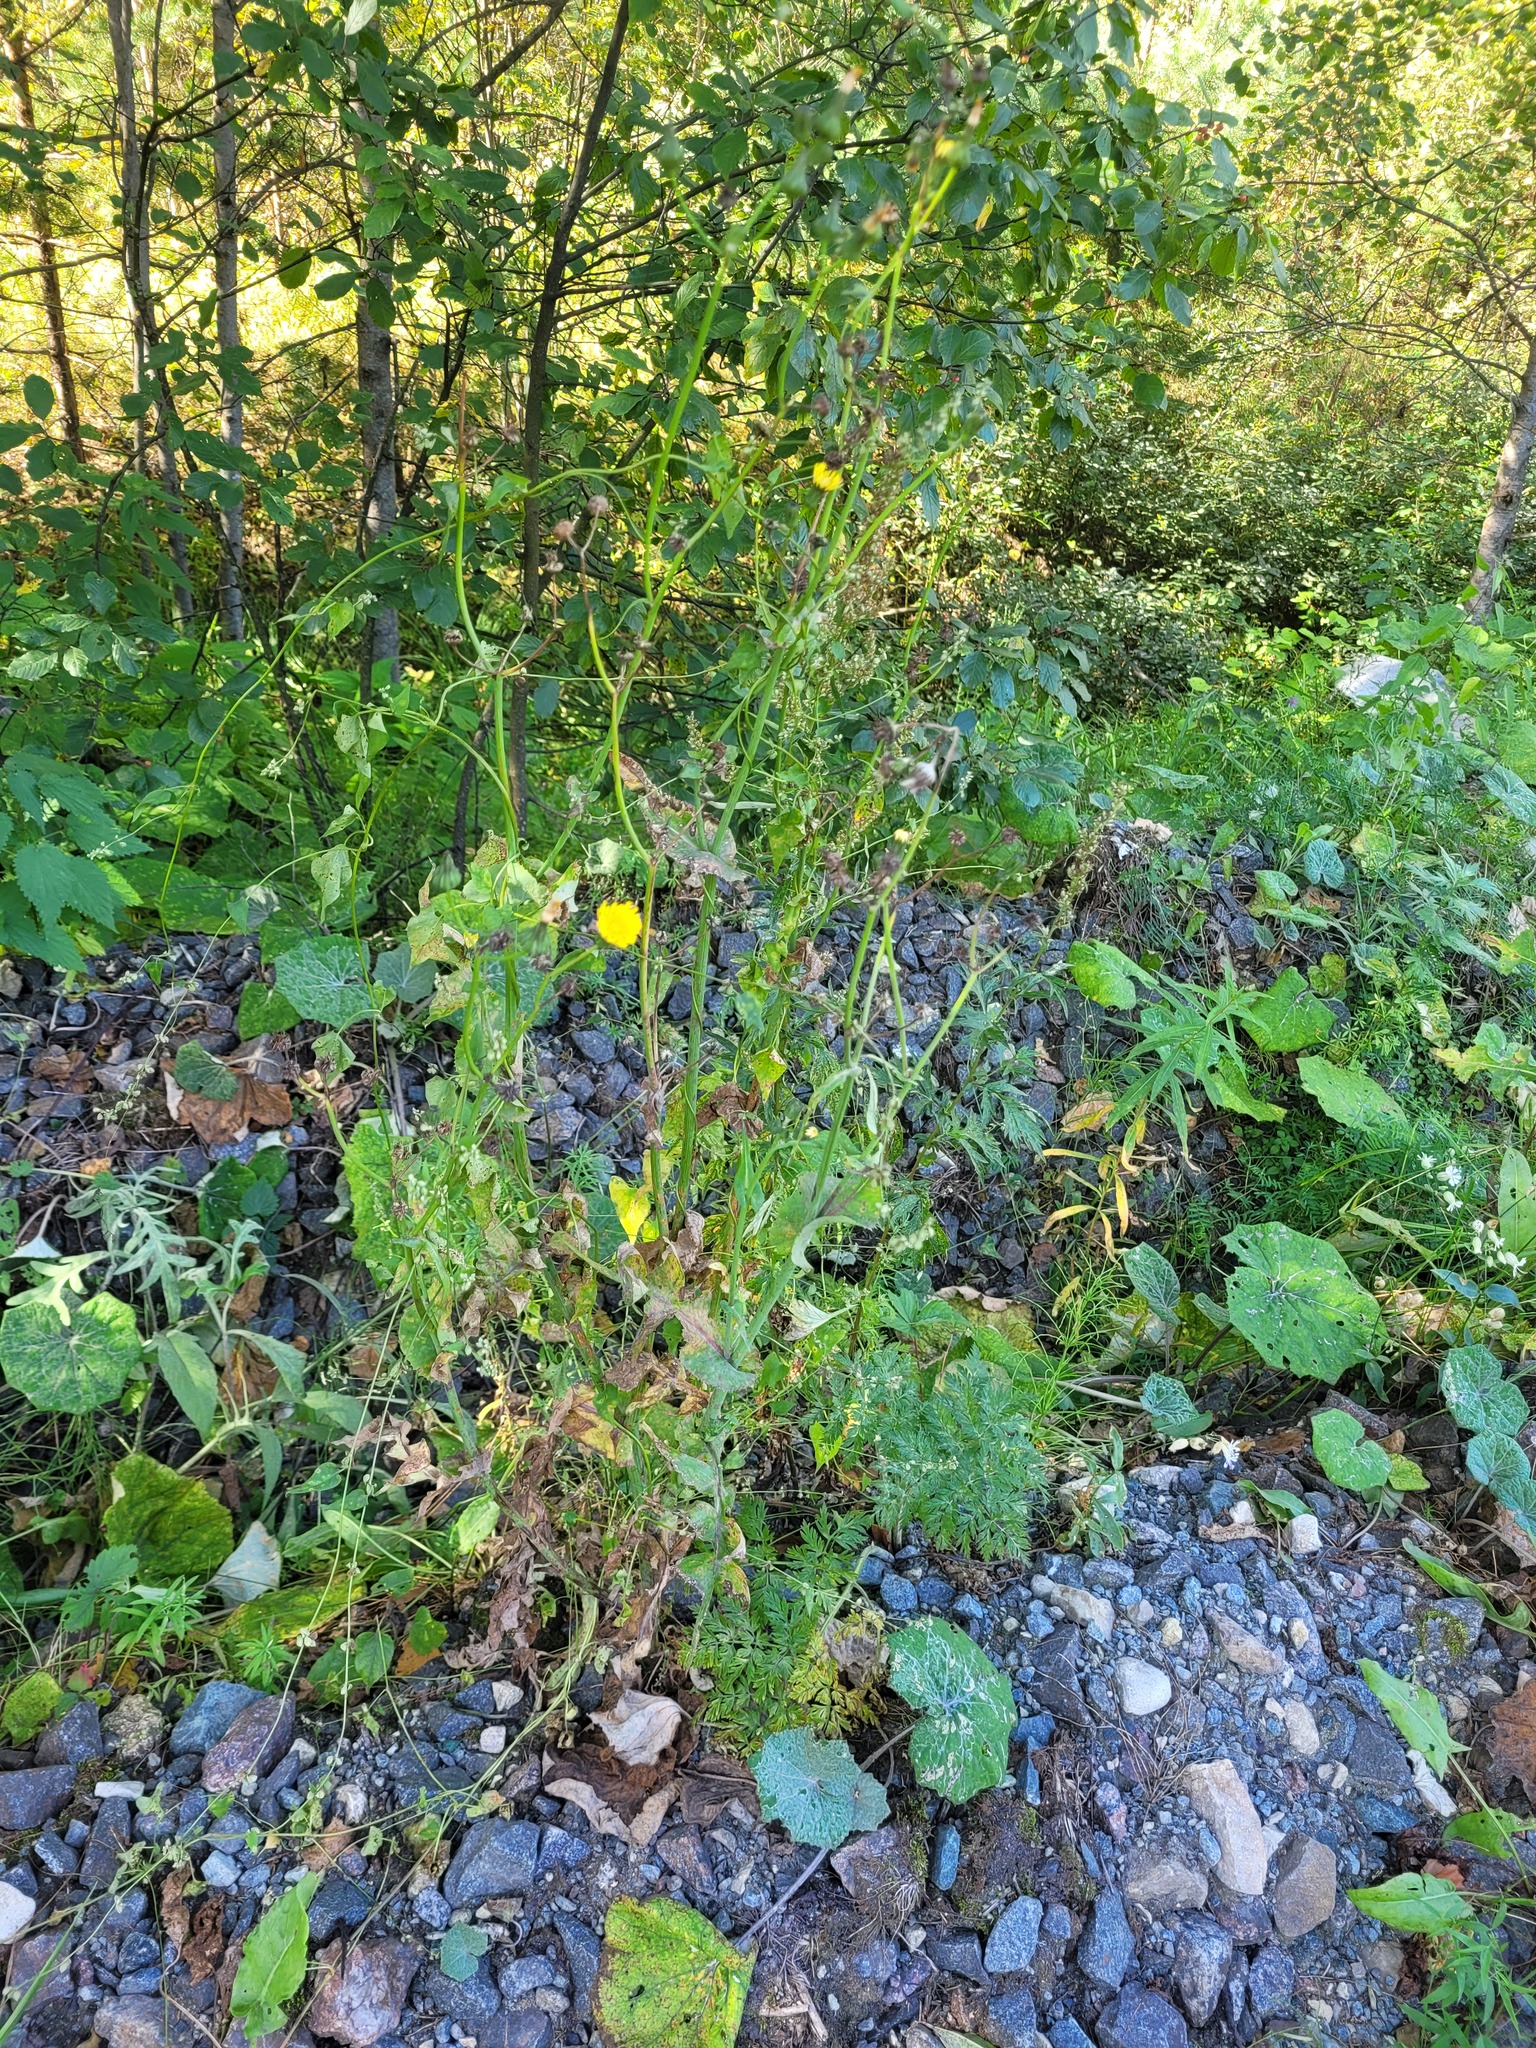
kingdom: Plantae
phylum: Tracheophyta
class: Magnoliopsida
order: Asterales
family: Asteraceae
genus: Sonchus
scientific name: Sonchus oleraceus
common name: Common sowthistle
